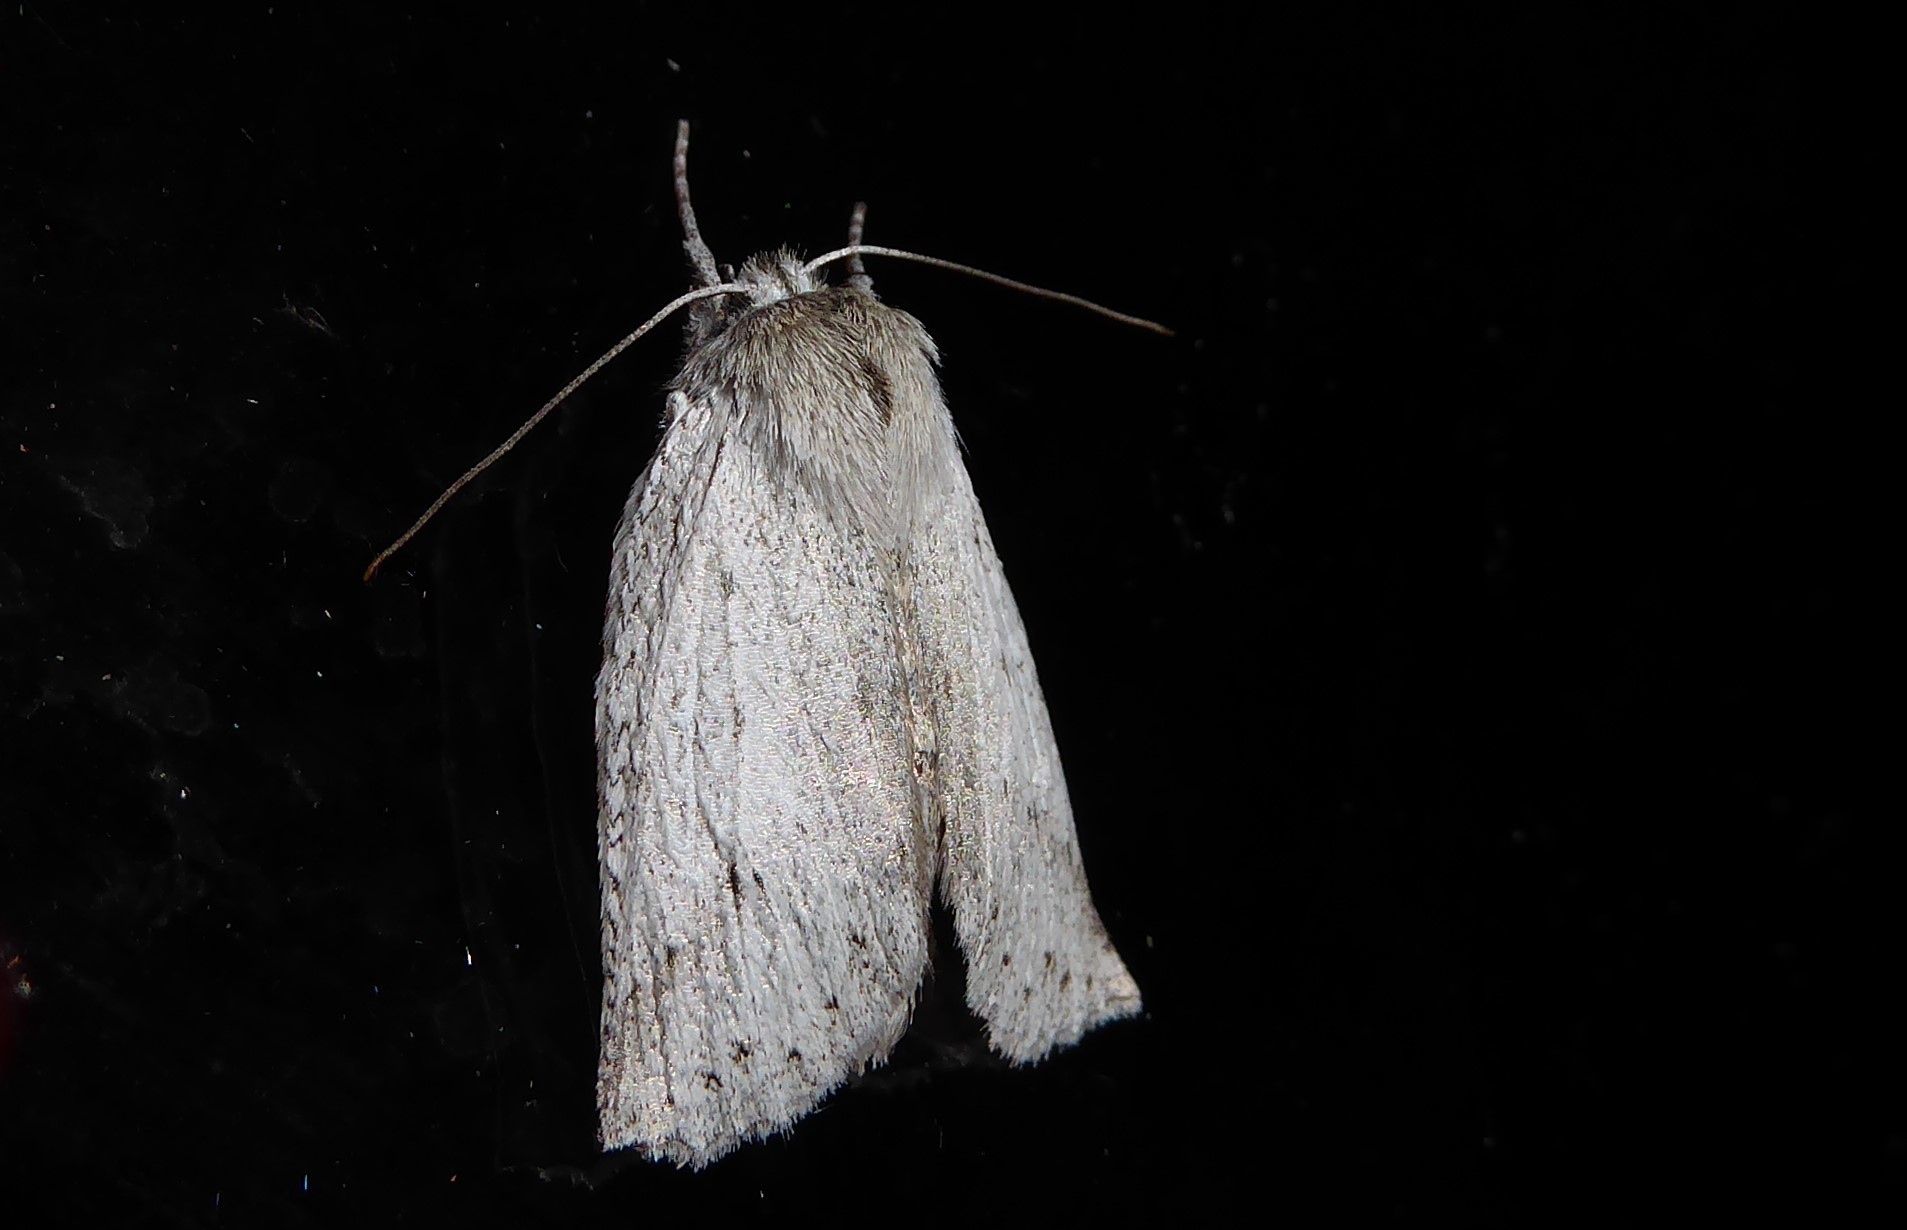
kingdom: Animalia
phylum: Arthropoda
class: Insecta
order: Lepidoptera
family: Geometridae
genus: Declana
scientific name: Declana leptomera
